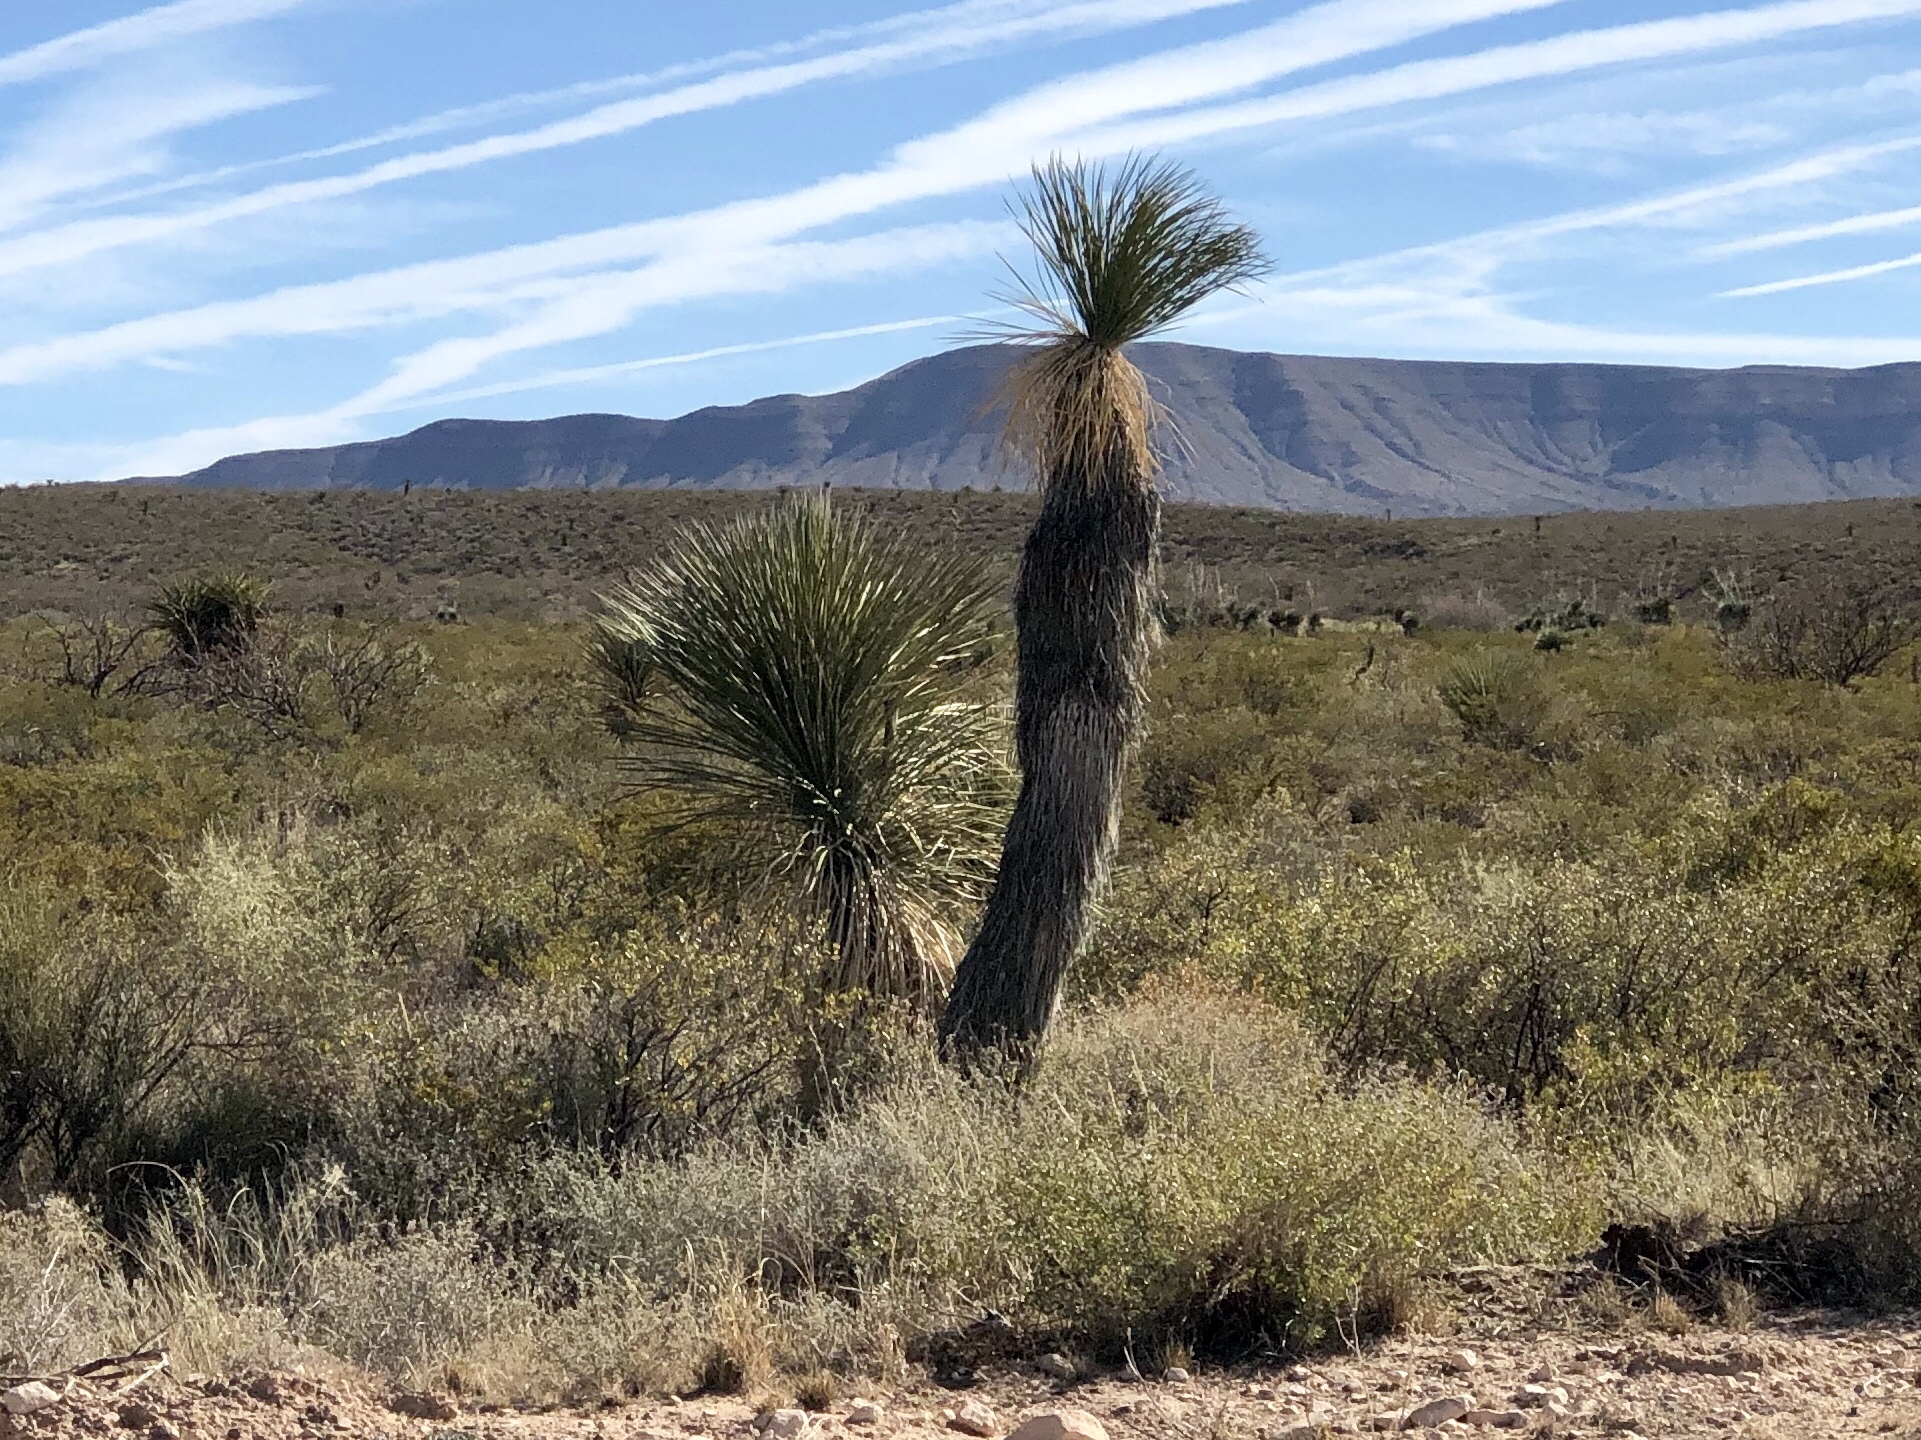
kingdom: Plantae
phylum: Tracheophyta
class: Liliopsida
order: Asparagales
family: Asparagaceae
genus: Yucca
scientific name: Yucca elata
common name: Palmella
